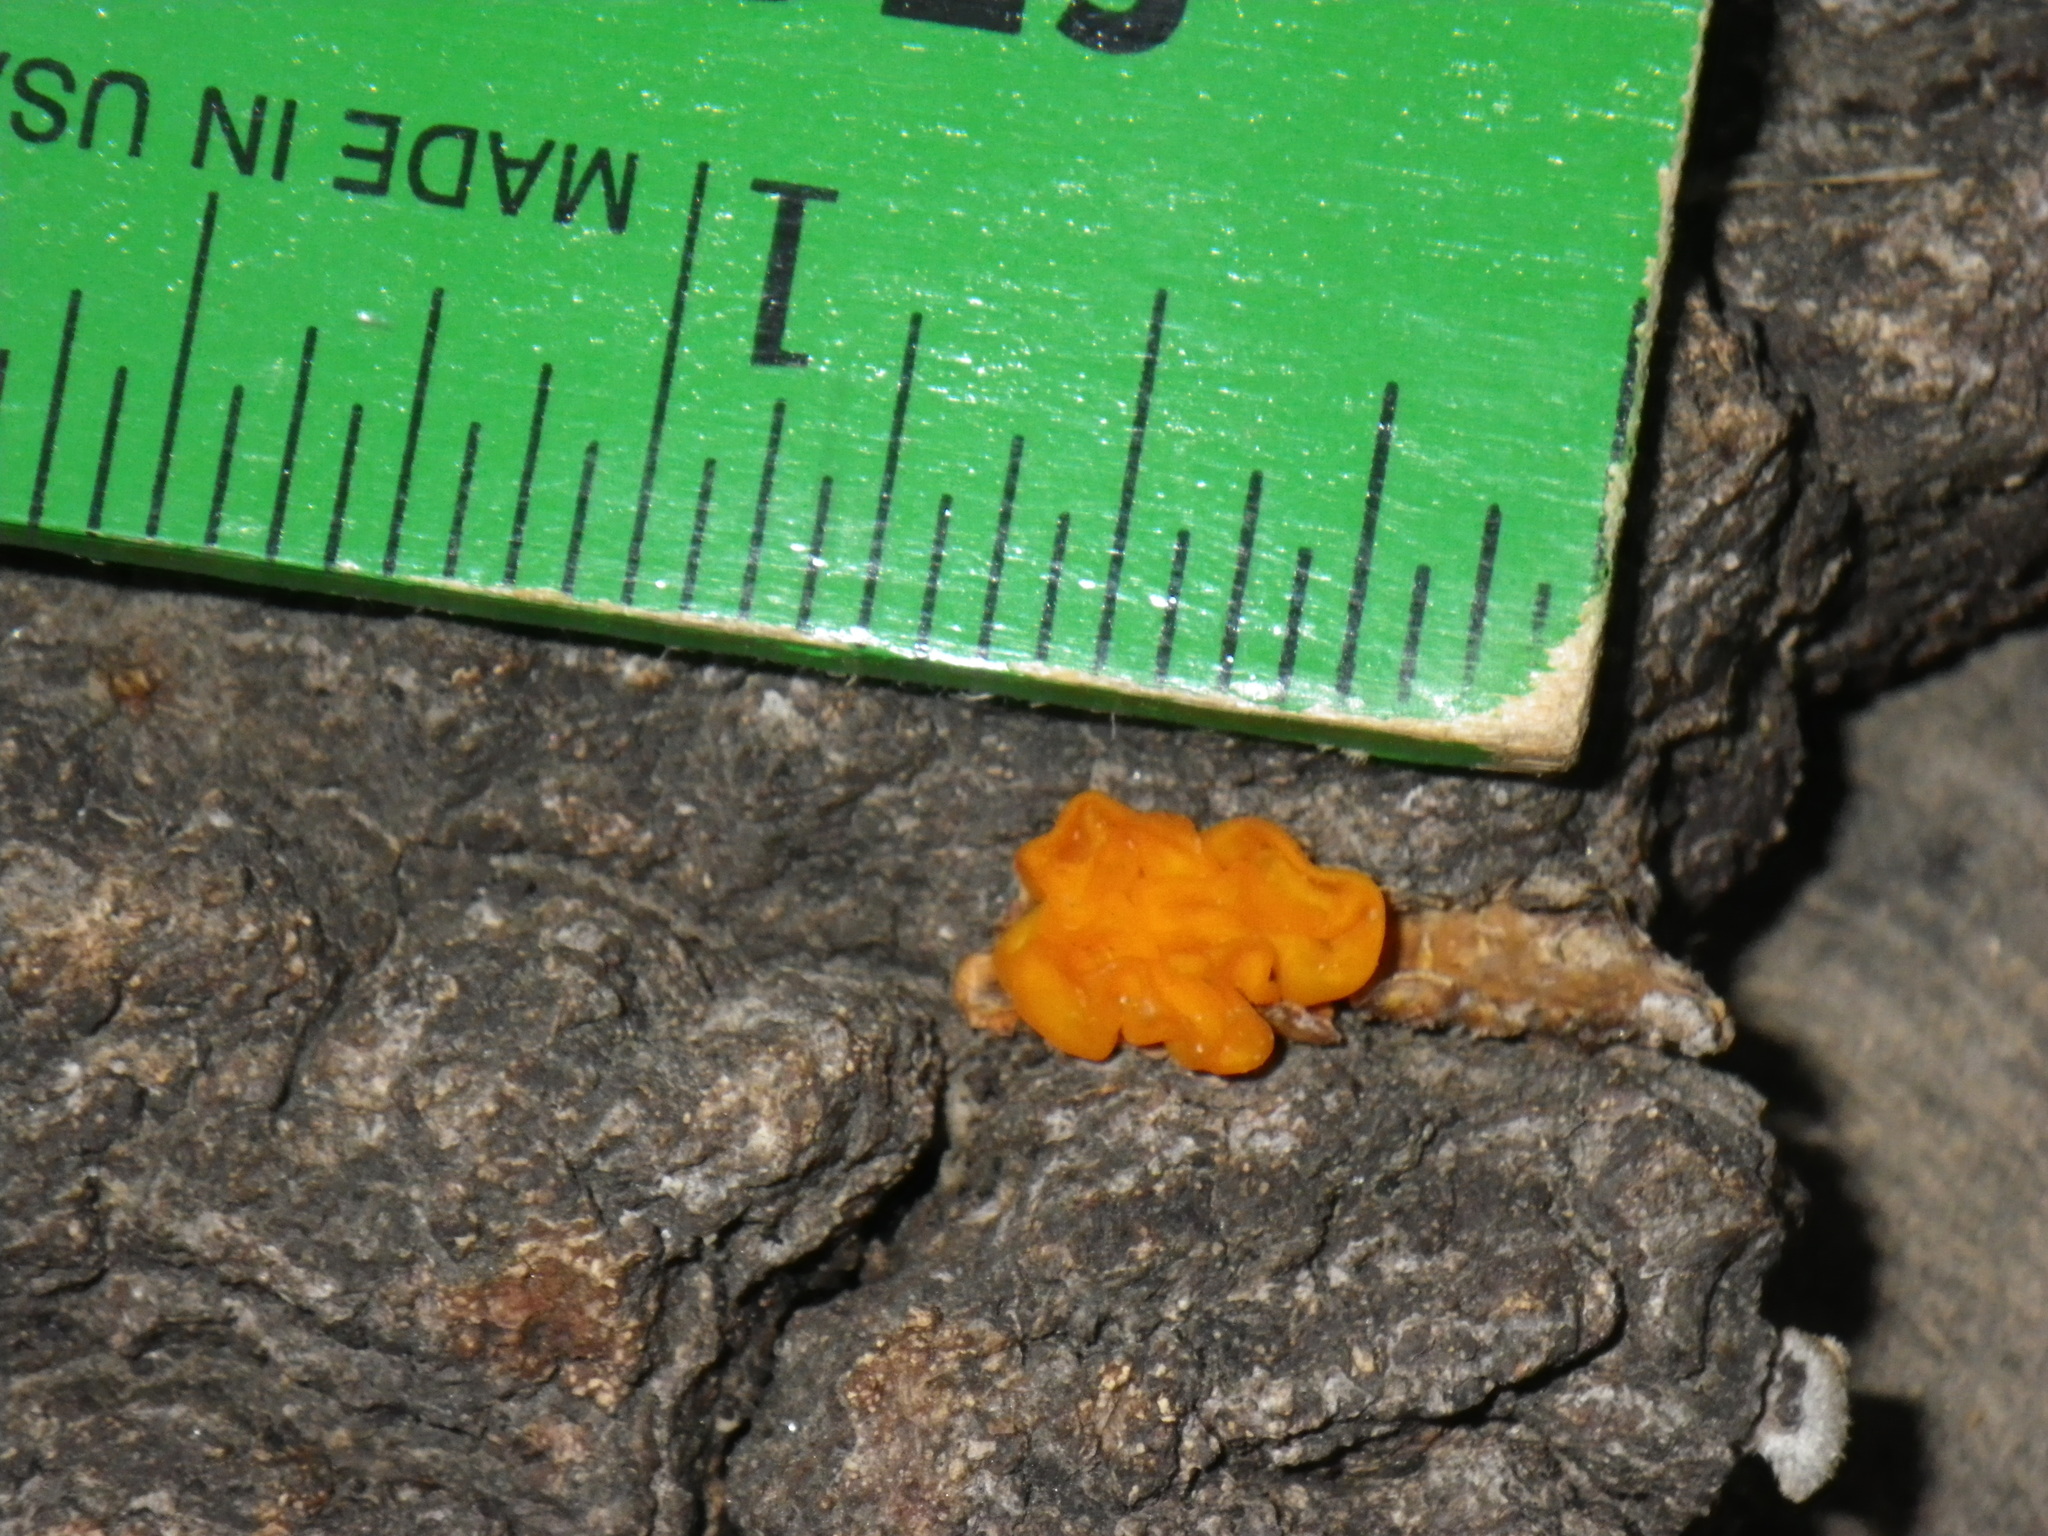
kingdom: Fungi
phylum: Basidiomycota
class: Tremellomycetes
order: Tremellales
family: Naemateliaceae
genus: Naematelia
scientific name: Naematelia aurantia
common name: Golden ear
